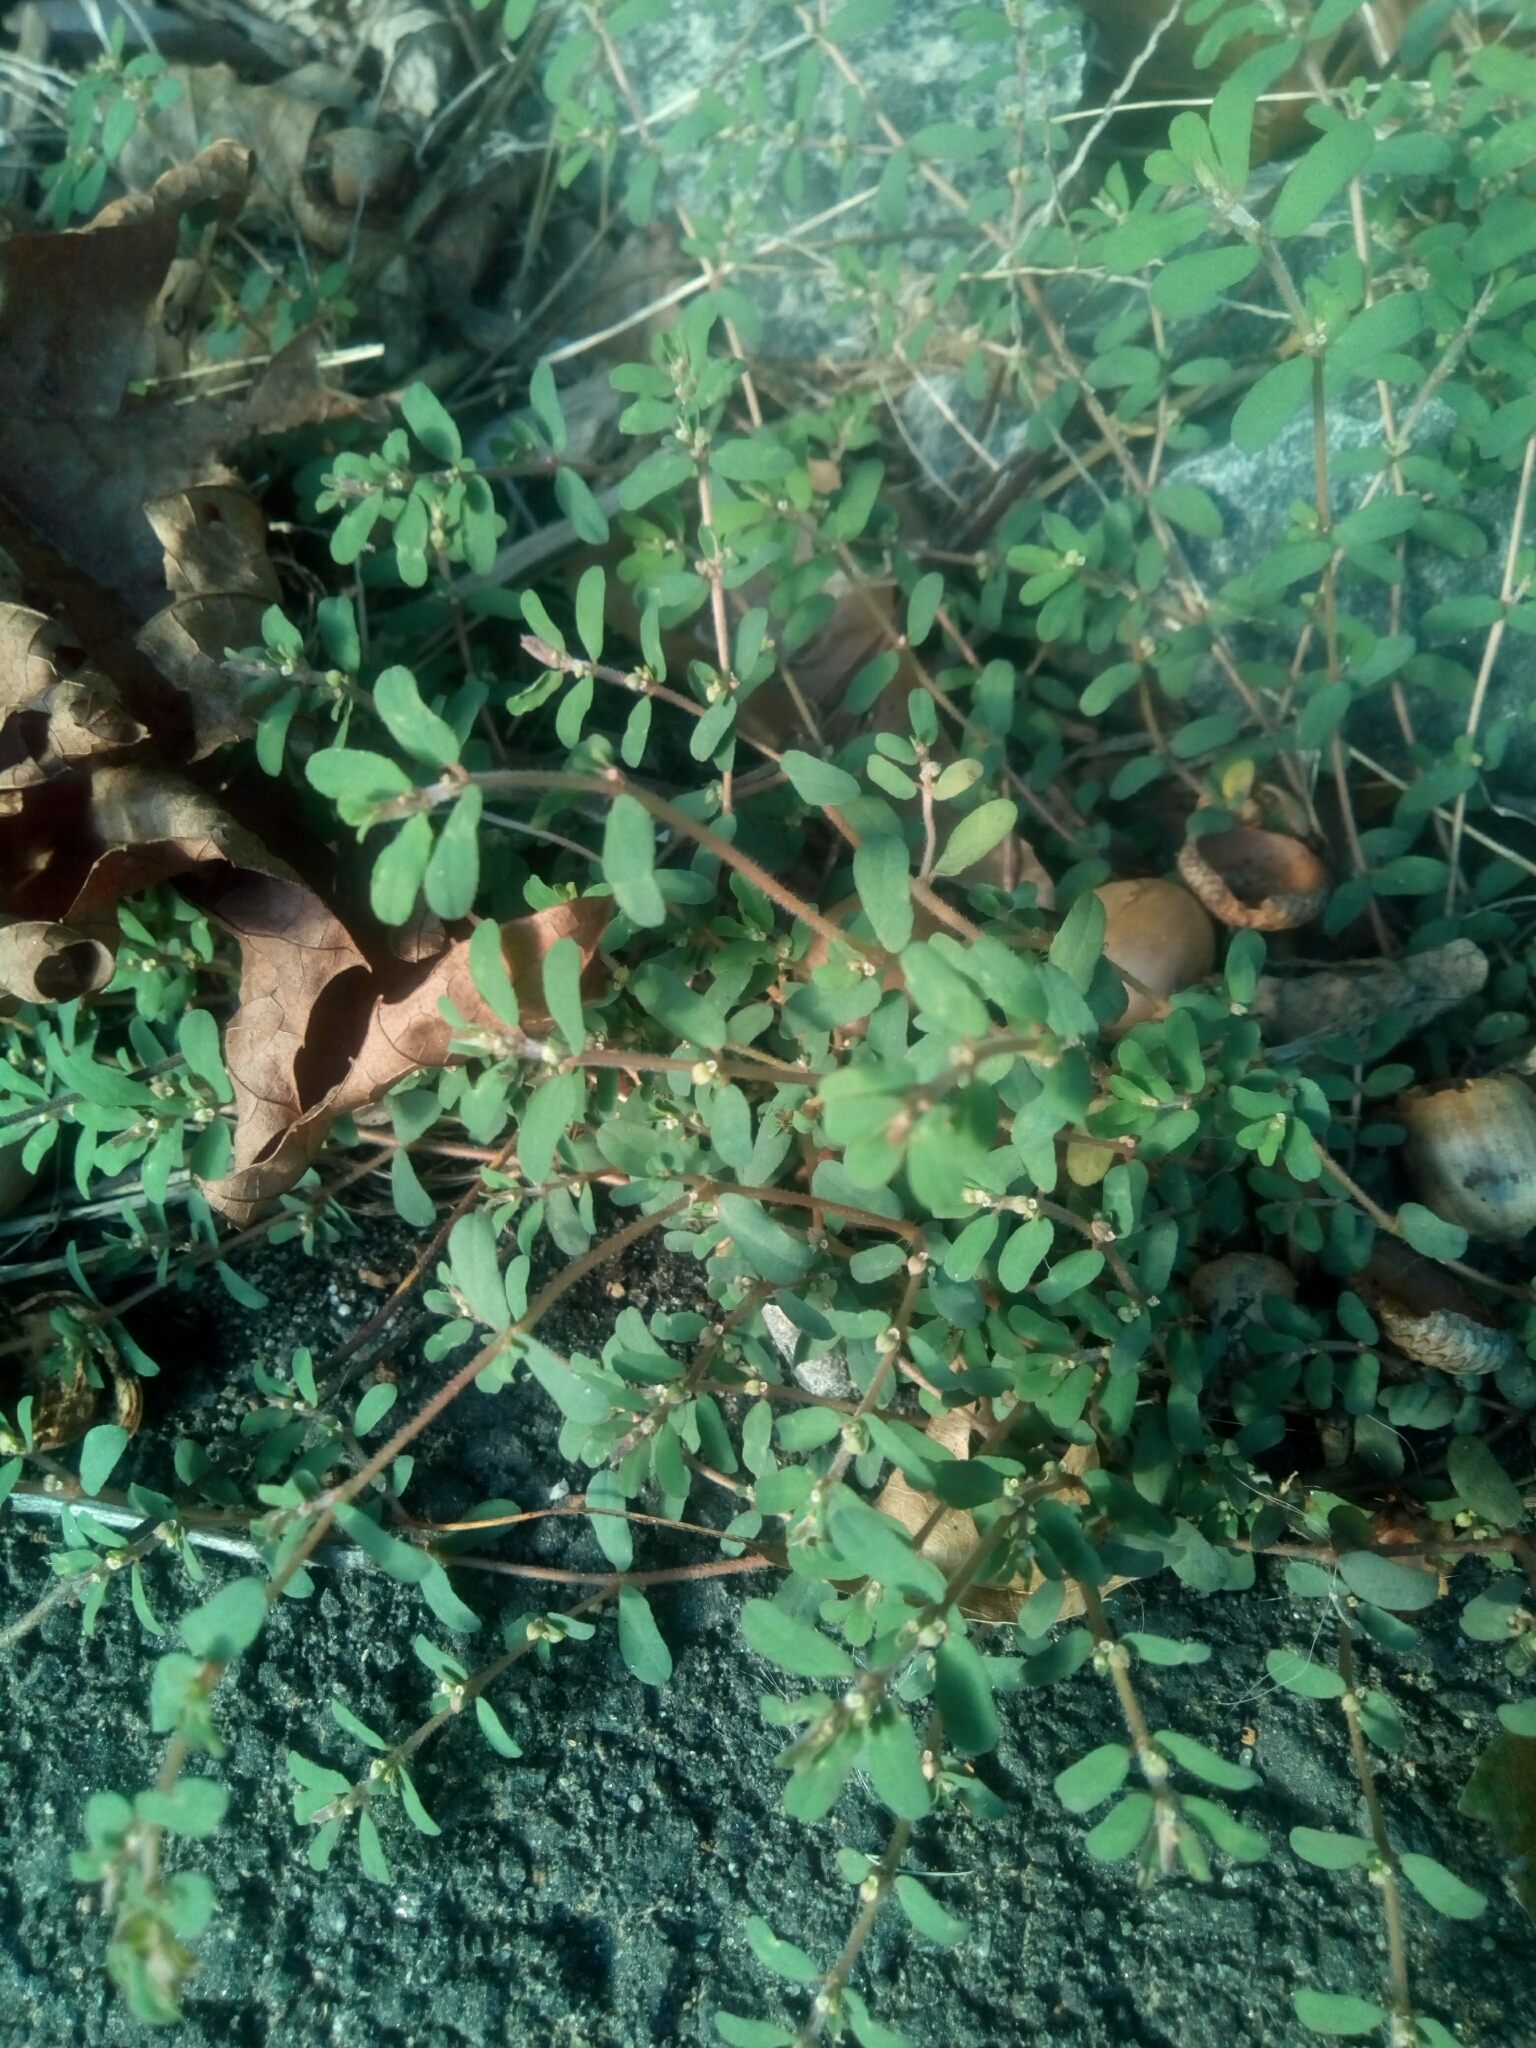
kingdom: Plantae
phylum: Tracheophyta
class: Magnoliopsida
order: Malpighiales
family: Euphorbiaceae
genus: Euphorbia
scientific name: Euphorbia maculata
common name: Spotted spurge
